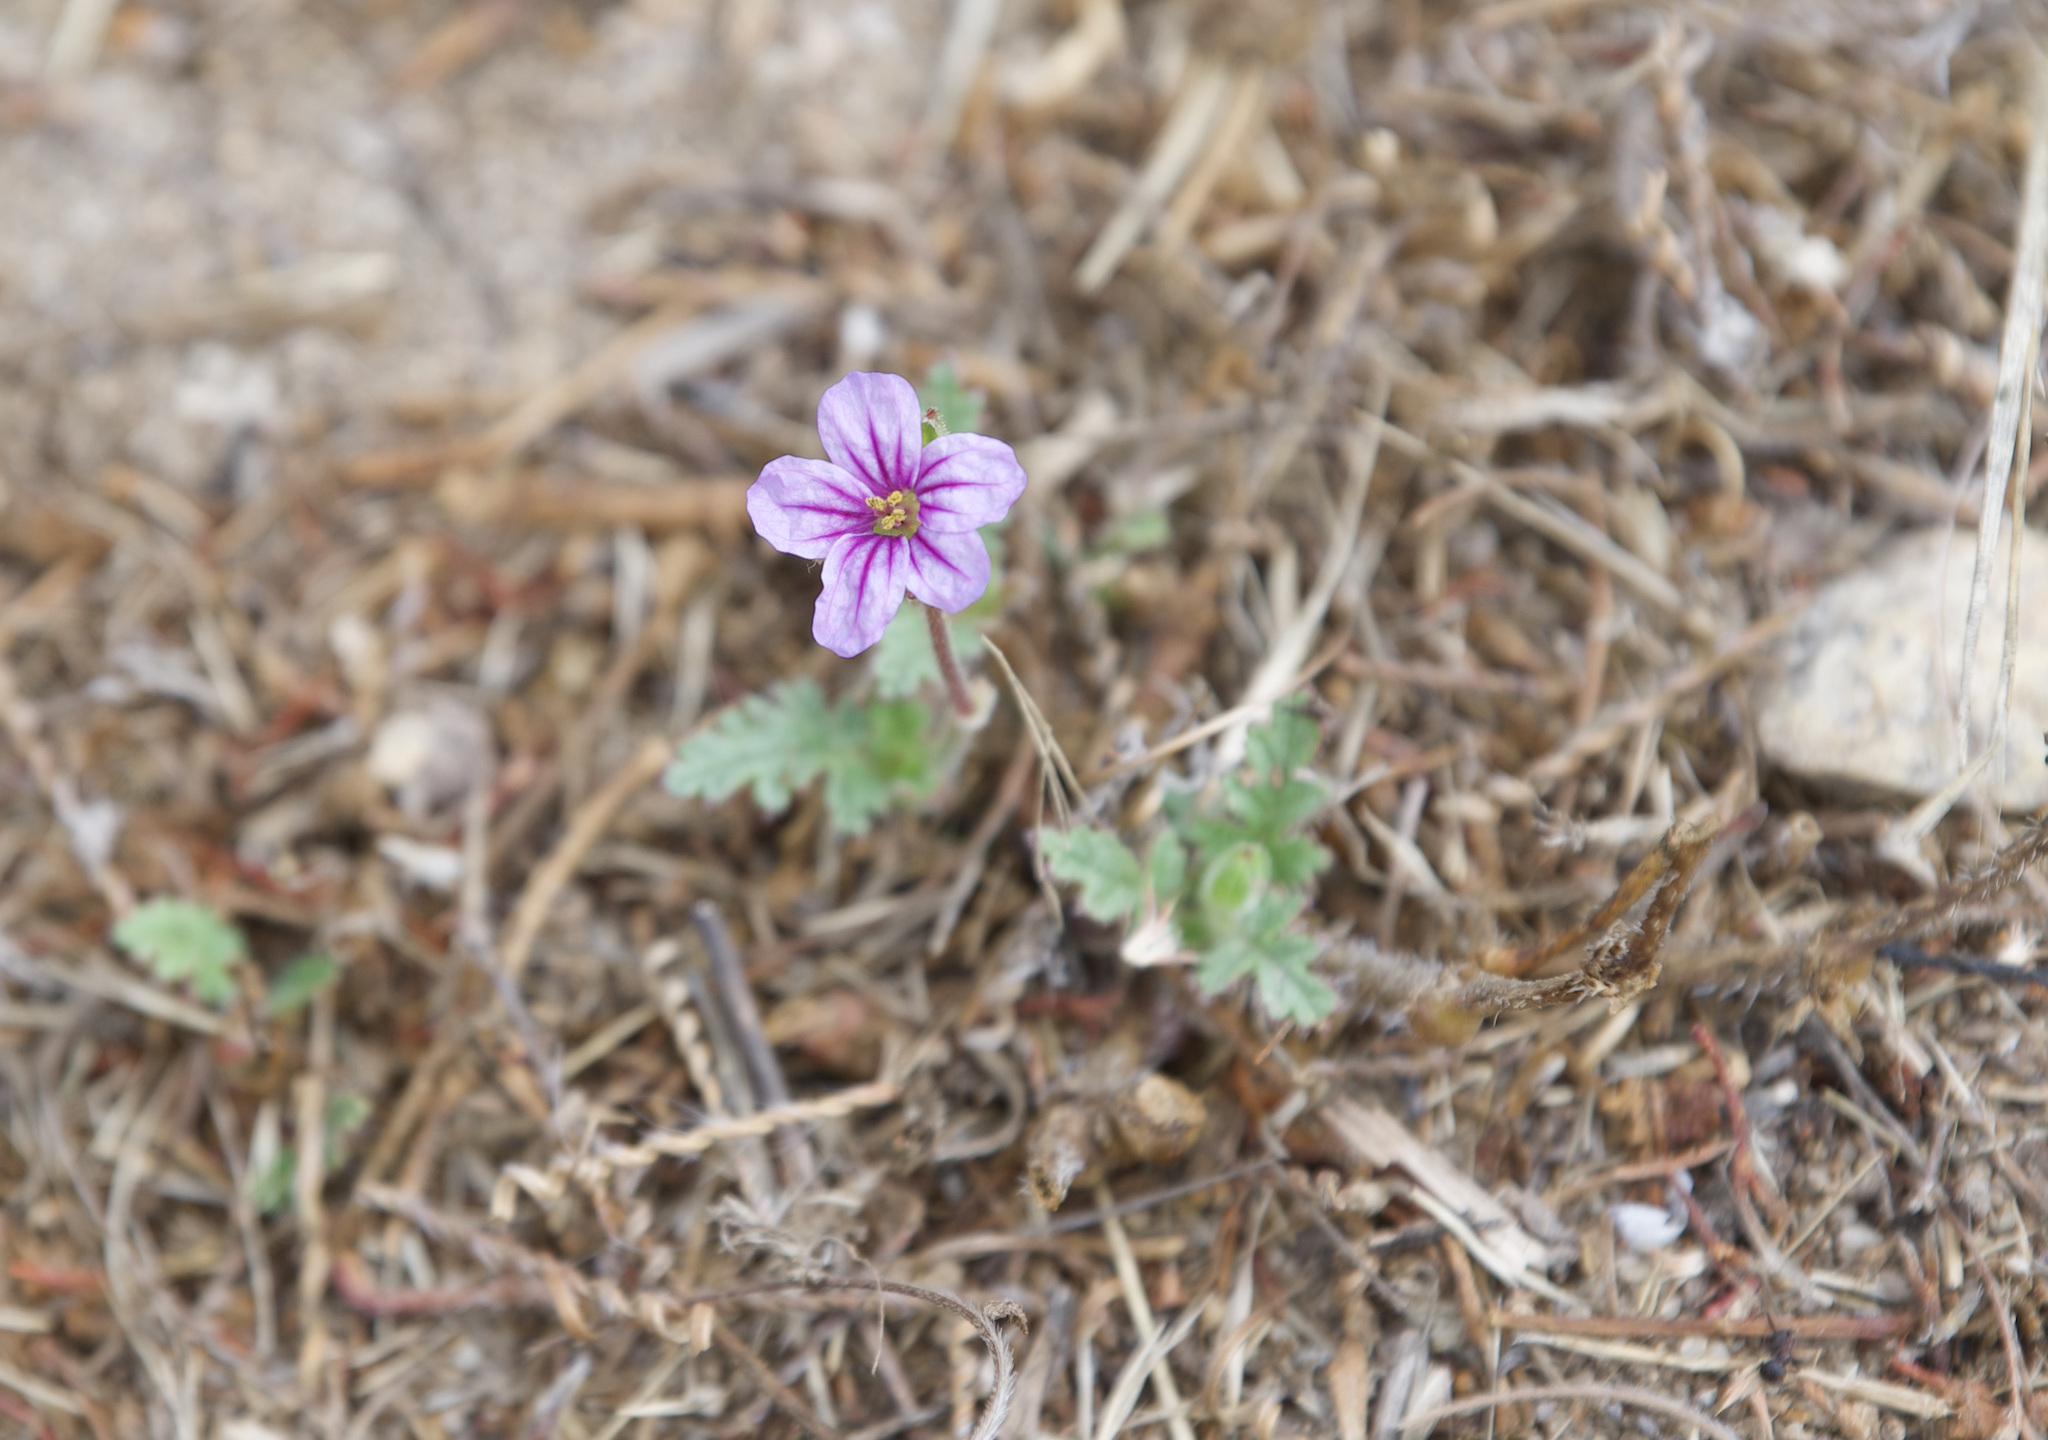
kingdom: Plantae
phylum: Tracheophyta
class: Magnoliopsida
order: Geraniales
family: Geraniaceae
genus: Erodium
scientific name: Erodium botrys
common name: Mediterranean stork's-bill
